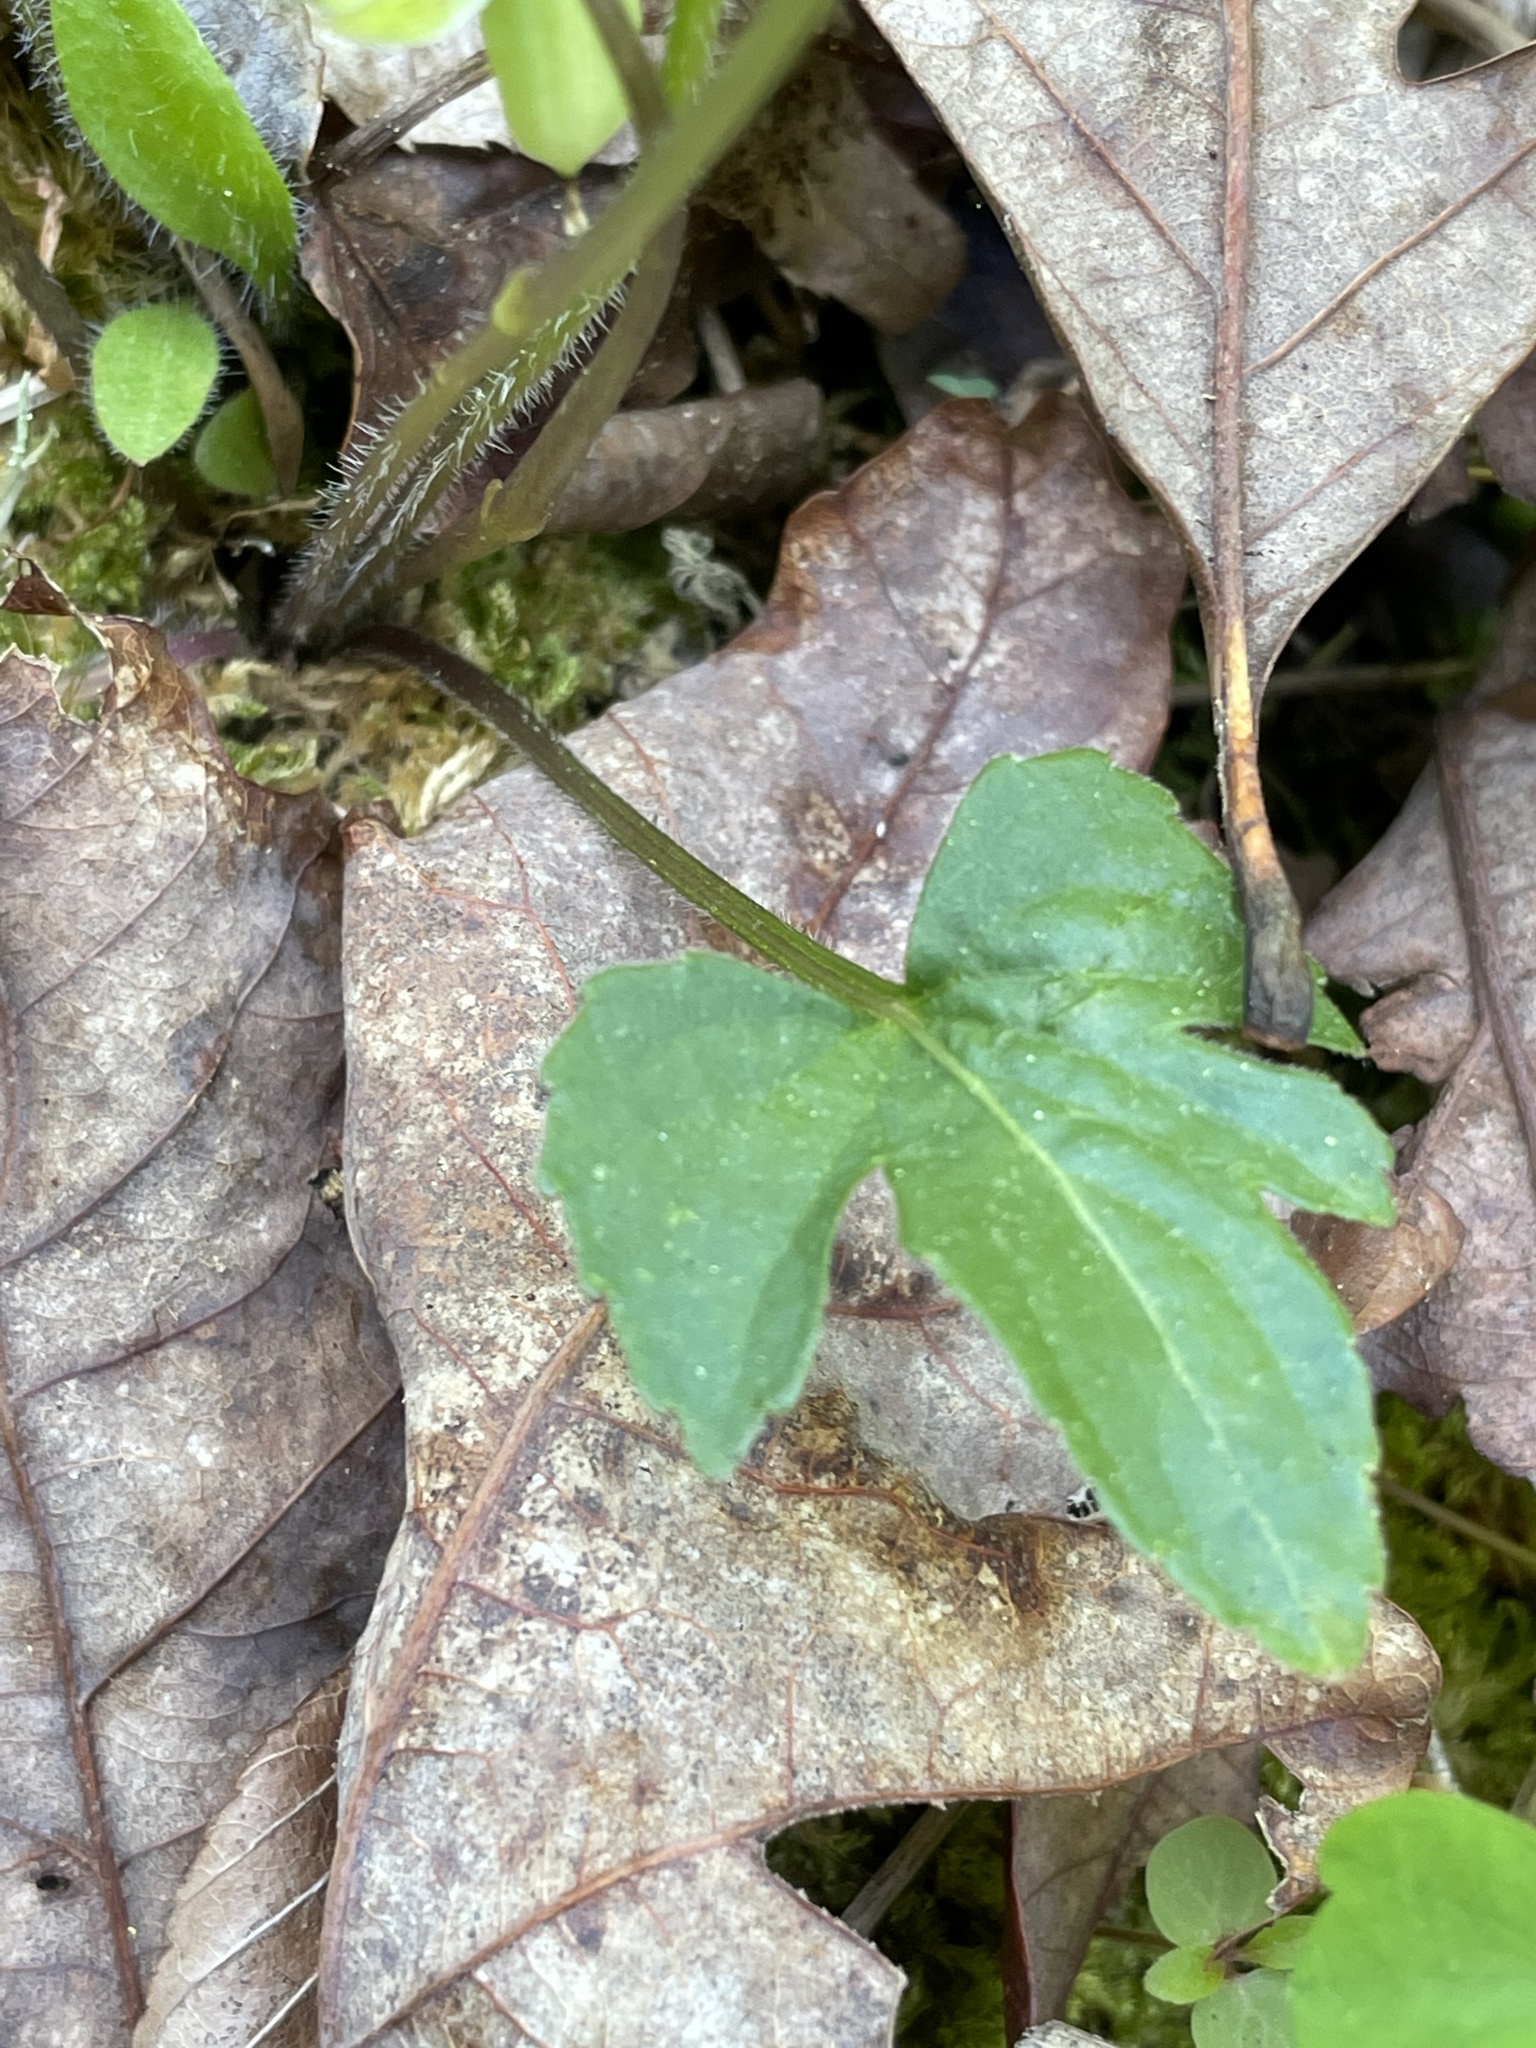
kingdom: Plantae
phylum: Tracheophyta
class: Magnoliopsida
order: Malpighiales
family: Violaceae
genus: Viola
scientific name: Viola palmata
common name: Early blue violet
